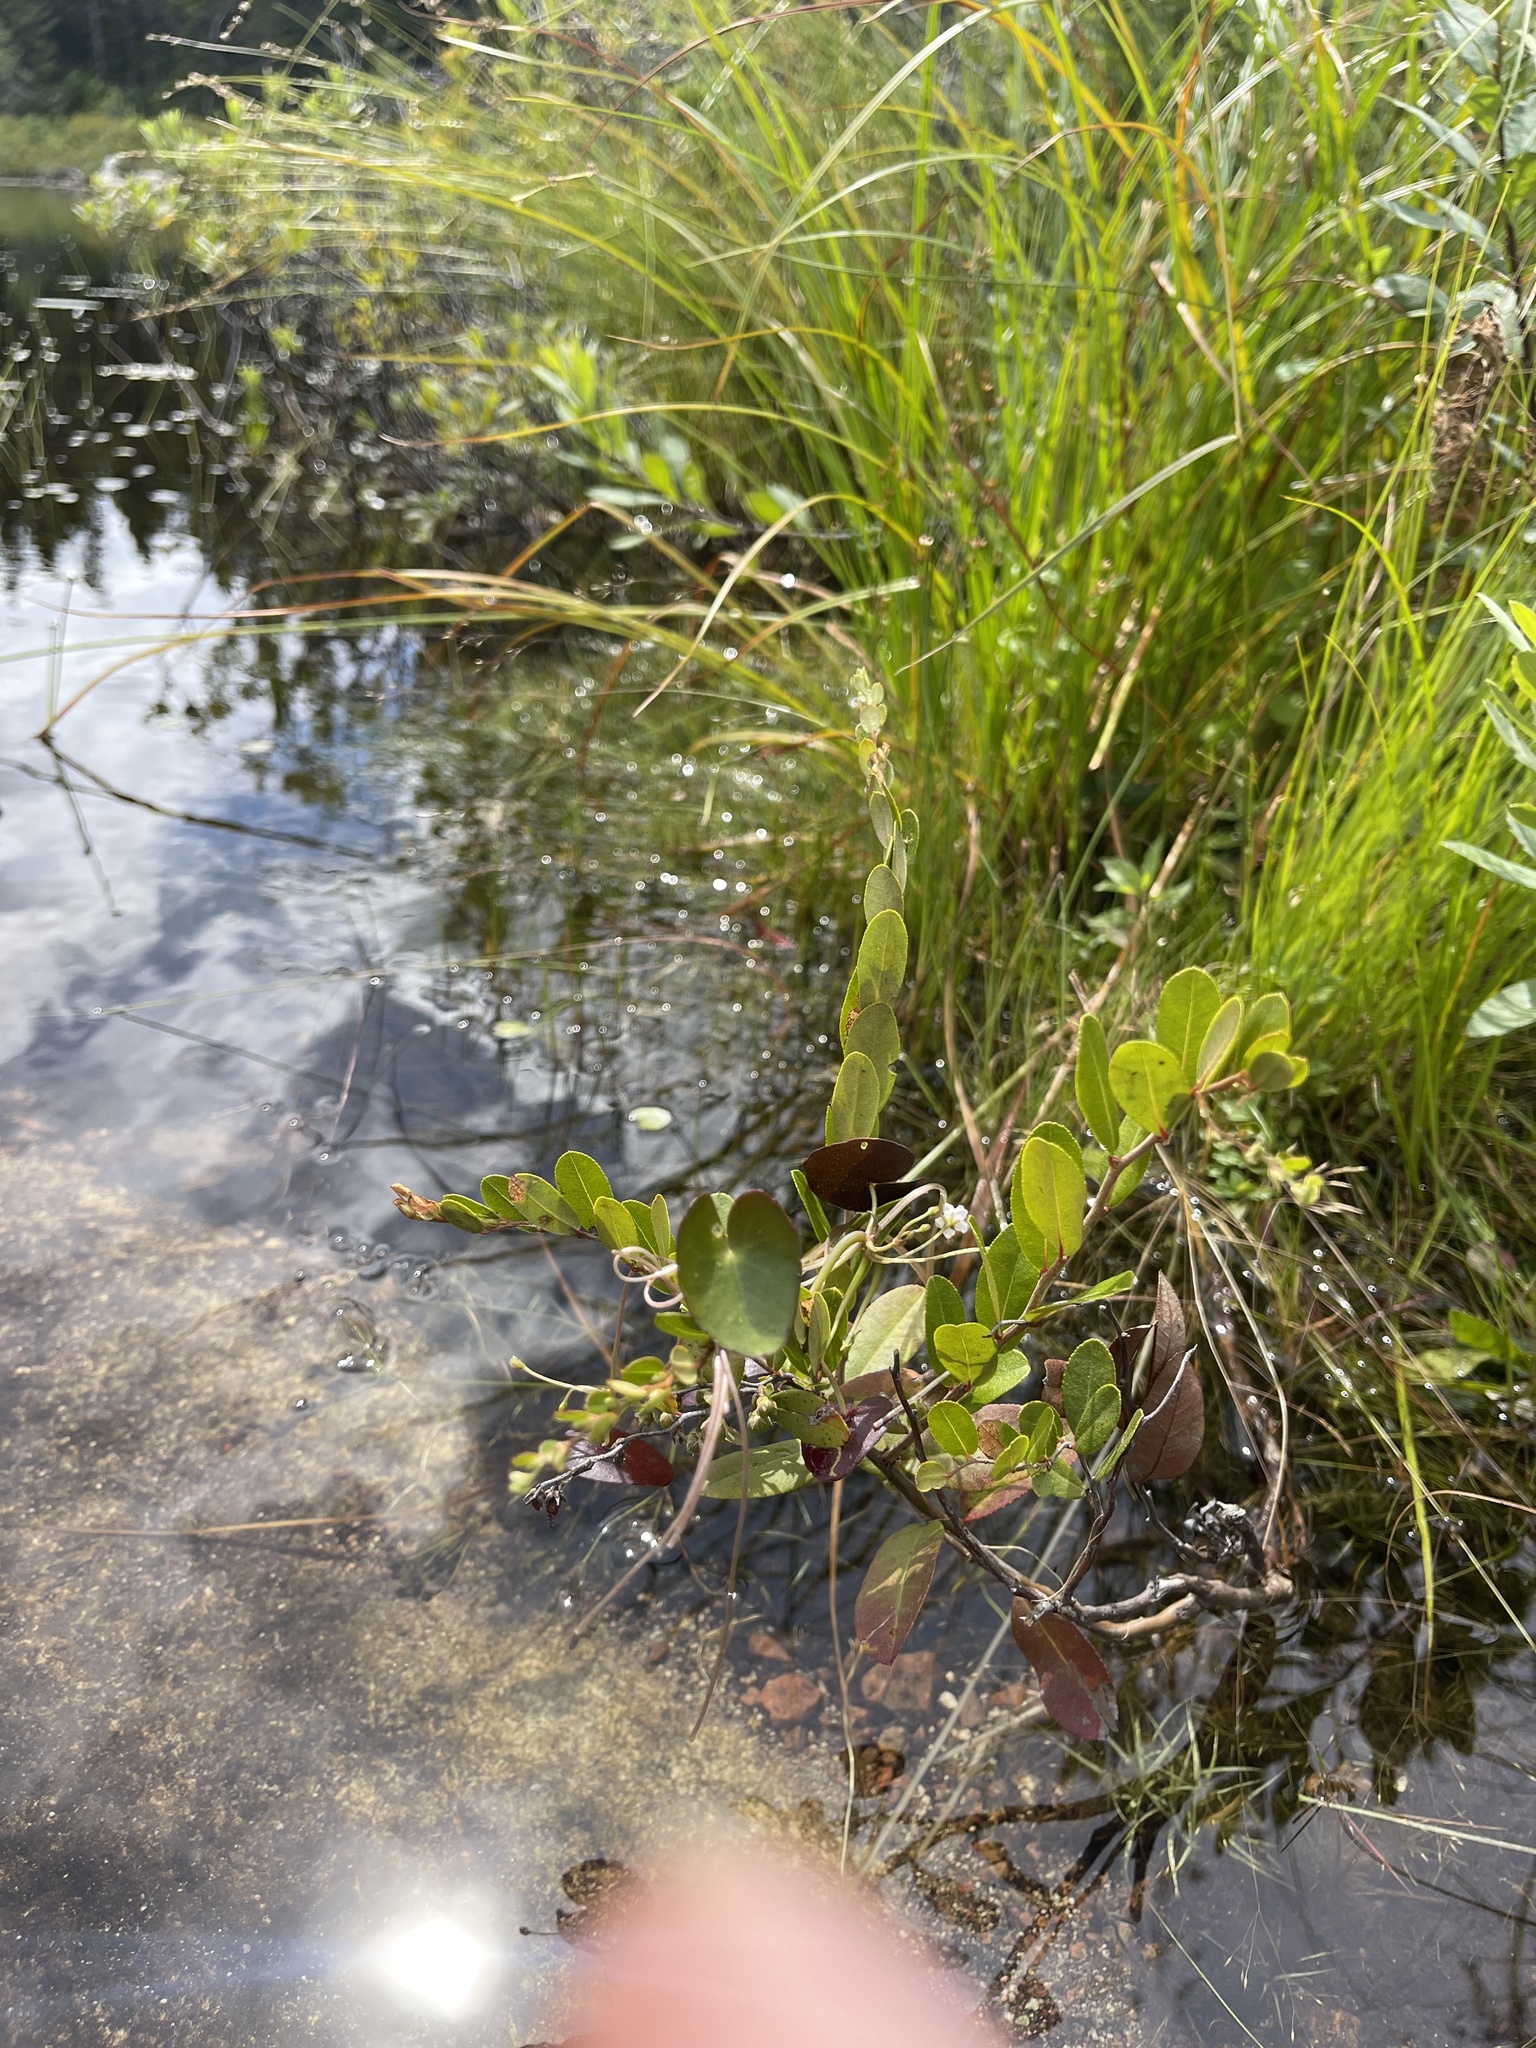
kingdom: Plantae
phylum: Tracheophyta
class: Magnoliopsida
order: Ericales
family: Ericaceae
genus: Chamaedaphne
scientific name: Chamaedaphne calyculata
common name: Leatherleaf
